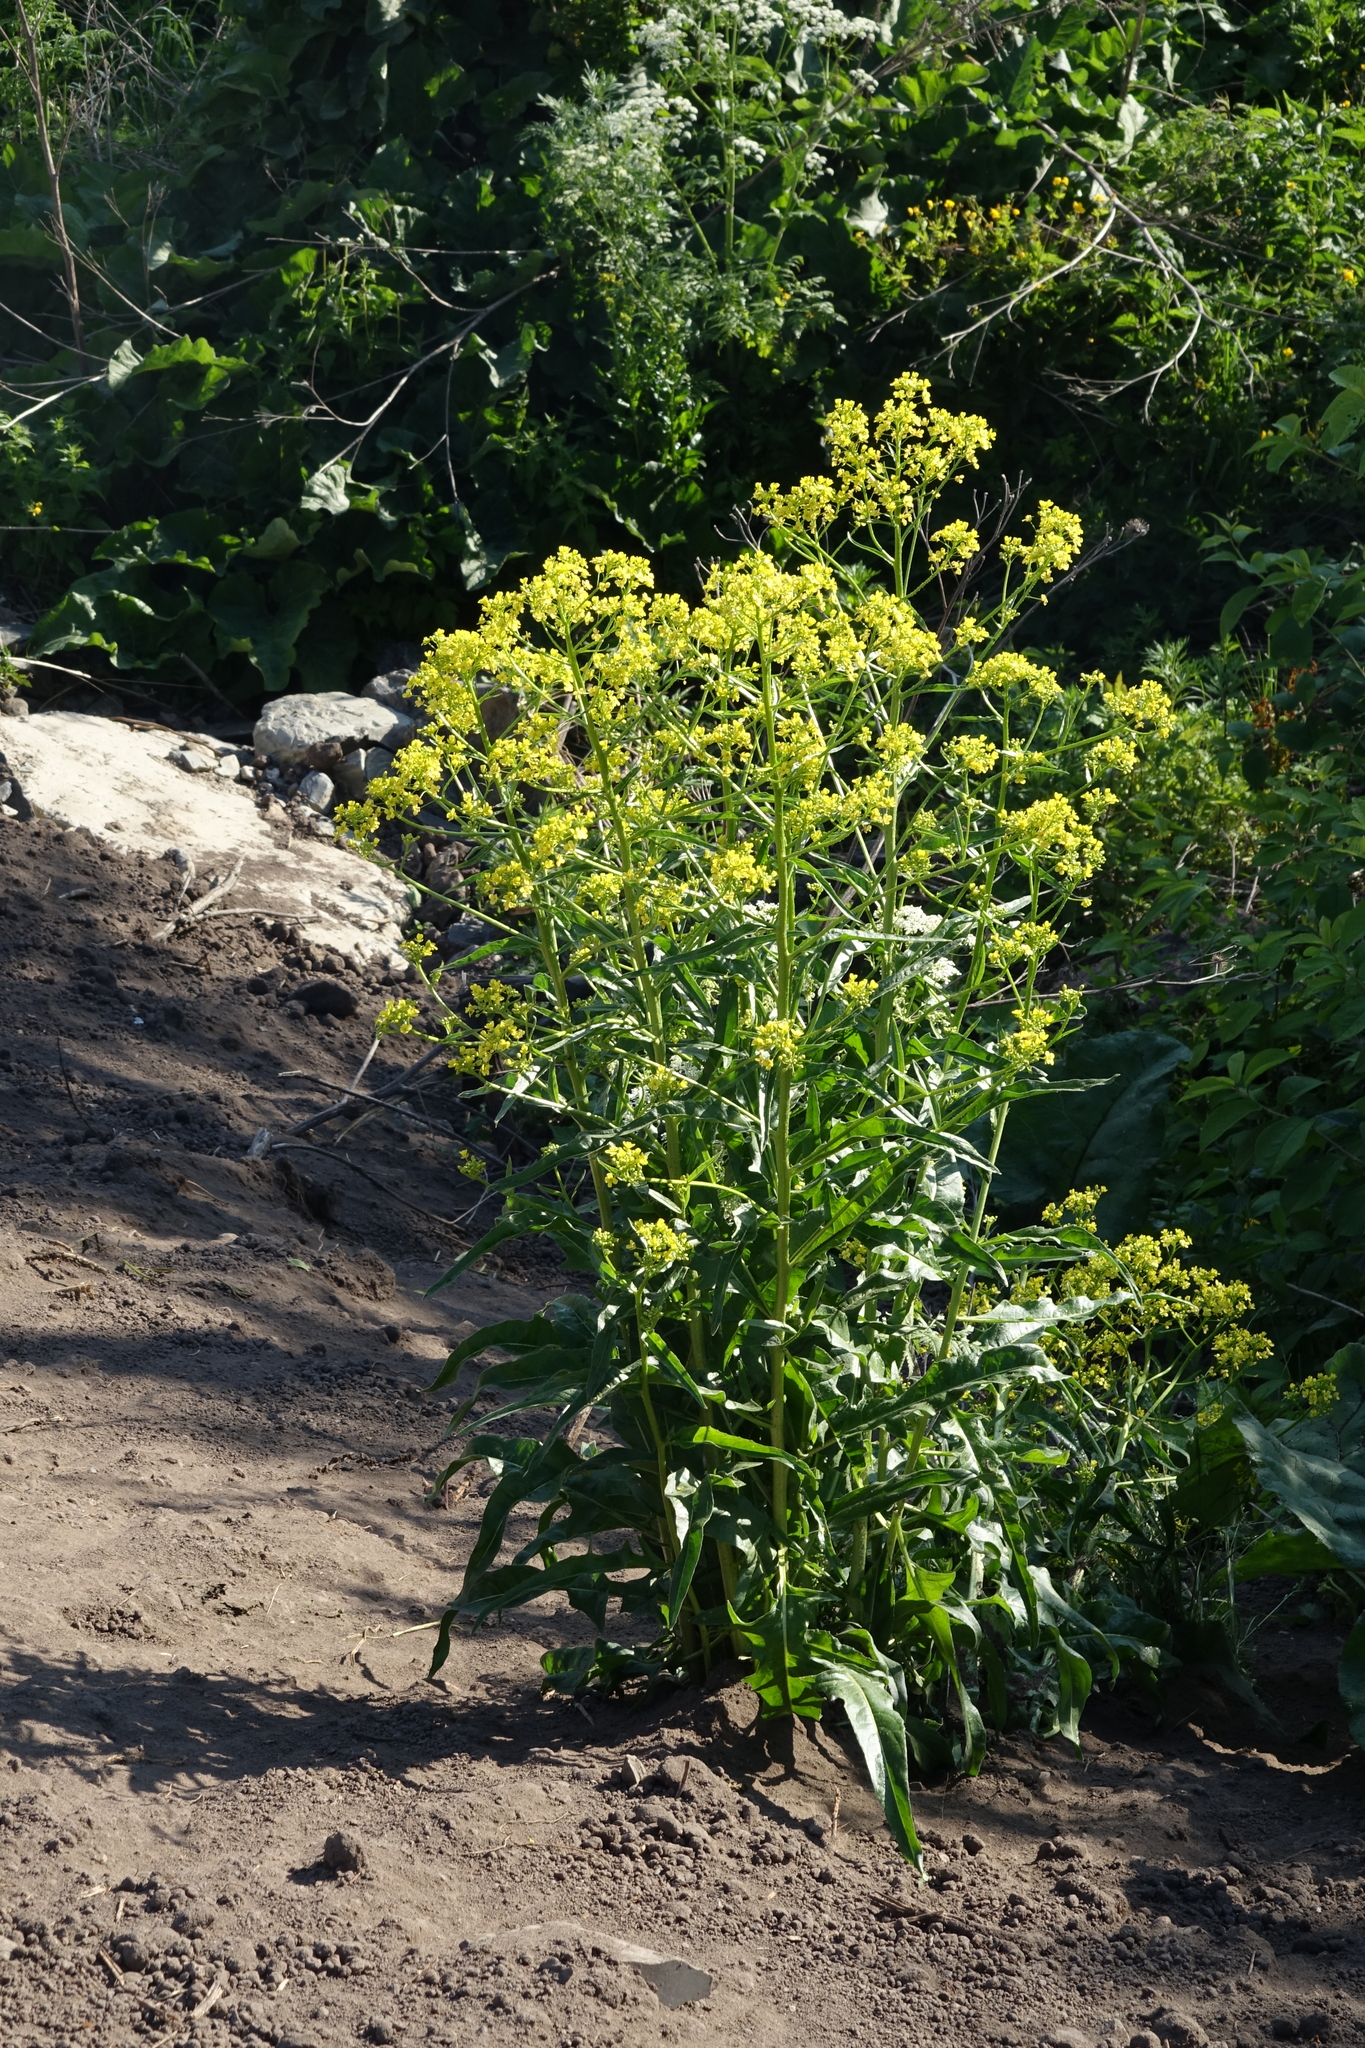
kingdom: Plantae
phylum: Tracheophyta
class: Magnoliopsida
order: Brassicales
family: Brassicaceae
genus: Bunias
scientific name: Bunias orientalis
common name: Warty-cabbage
